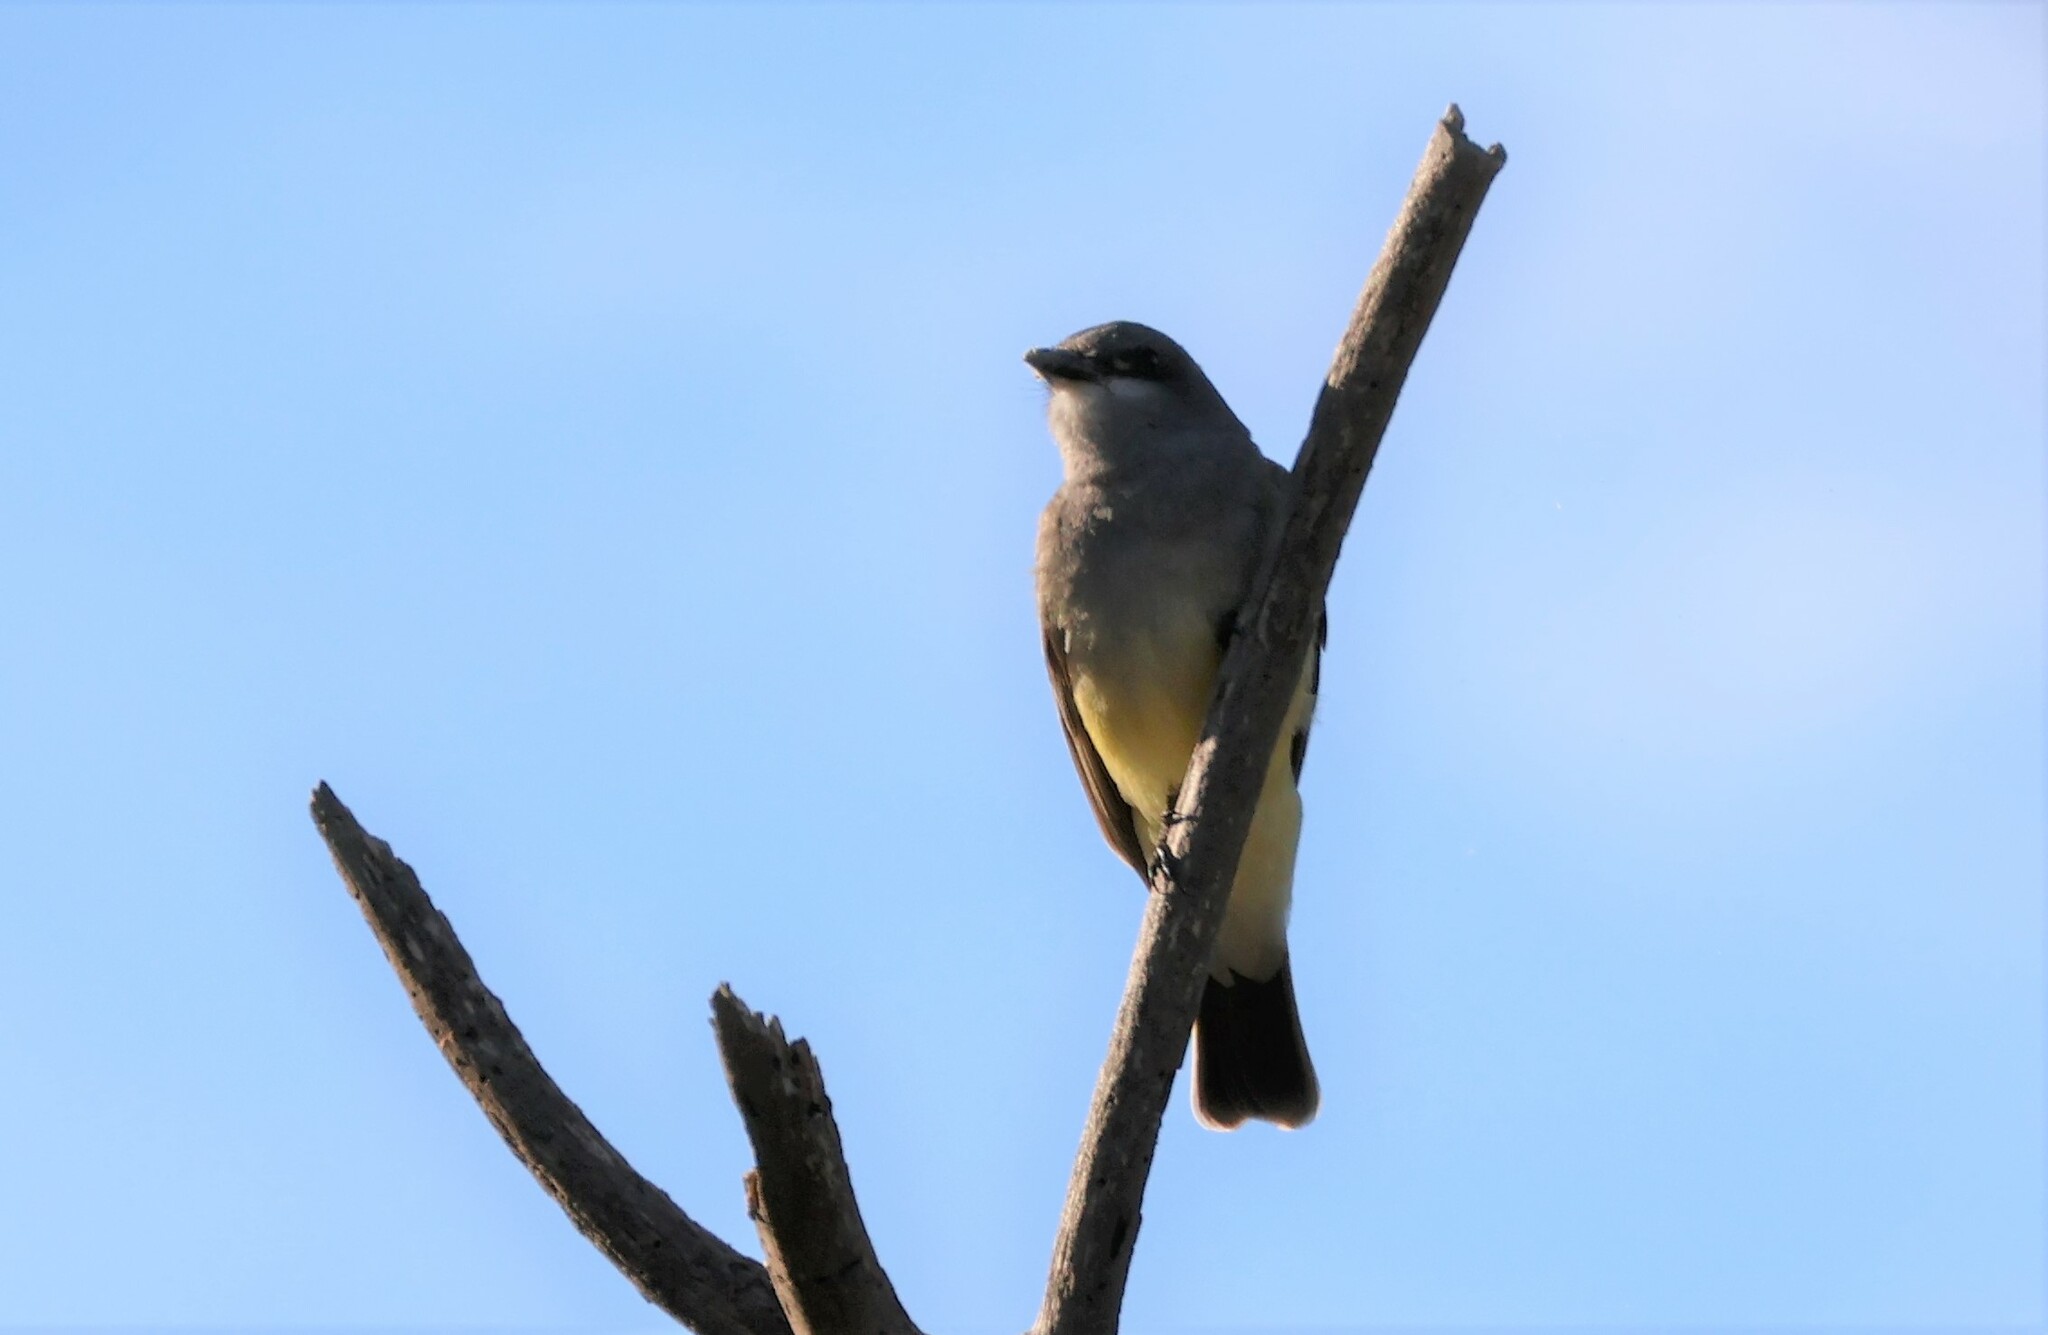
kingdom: Animalia
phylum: Chordata
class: Aves
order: Passeriformes
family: Tyrannidae
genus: Tyrannus
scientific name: Tyrannus vociferans
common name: Cassin's kingbird
